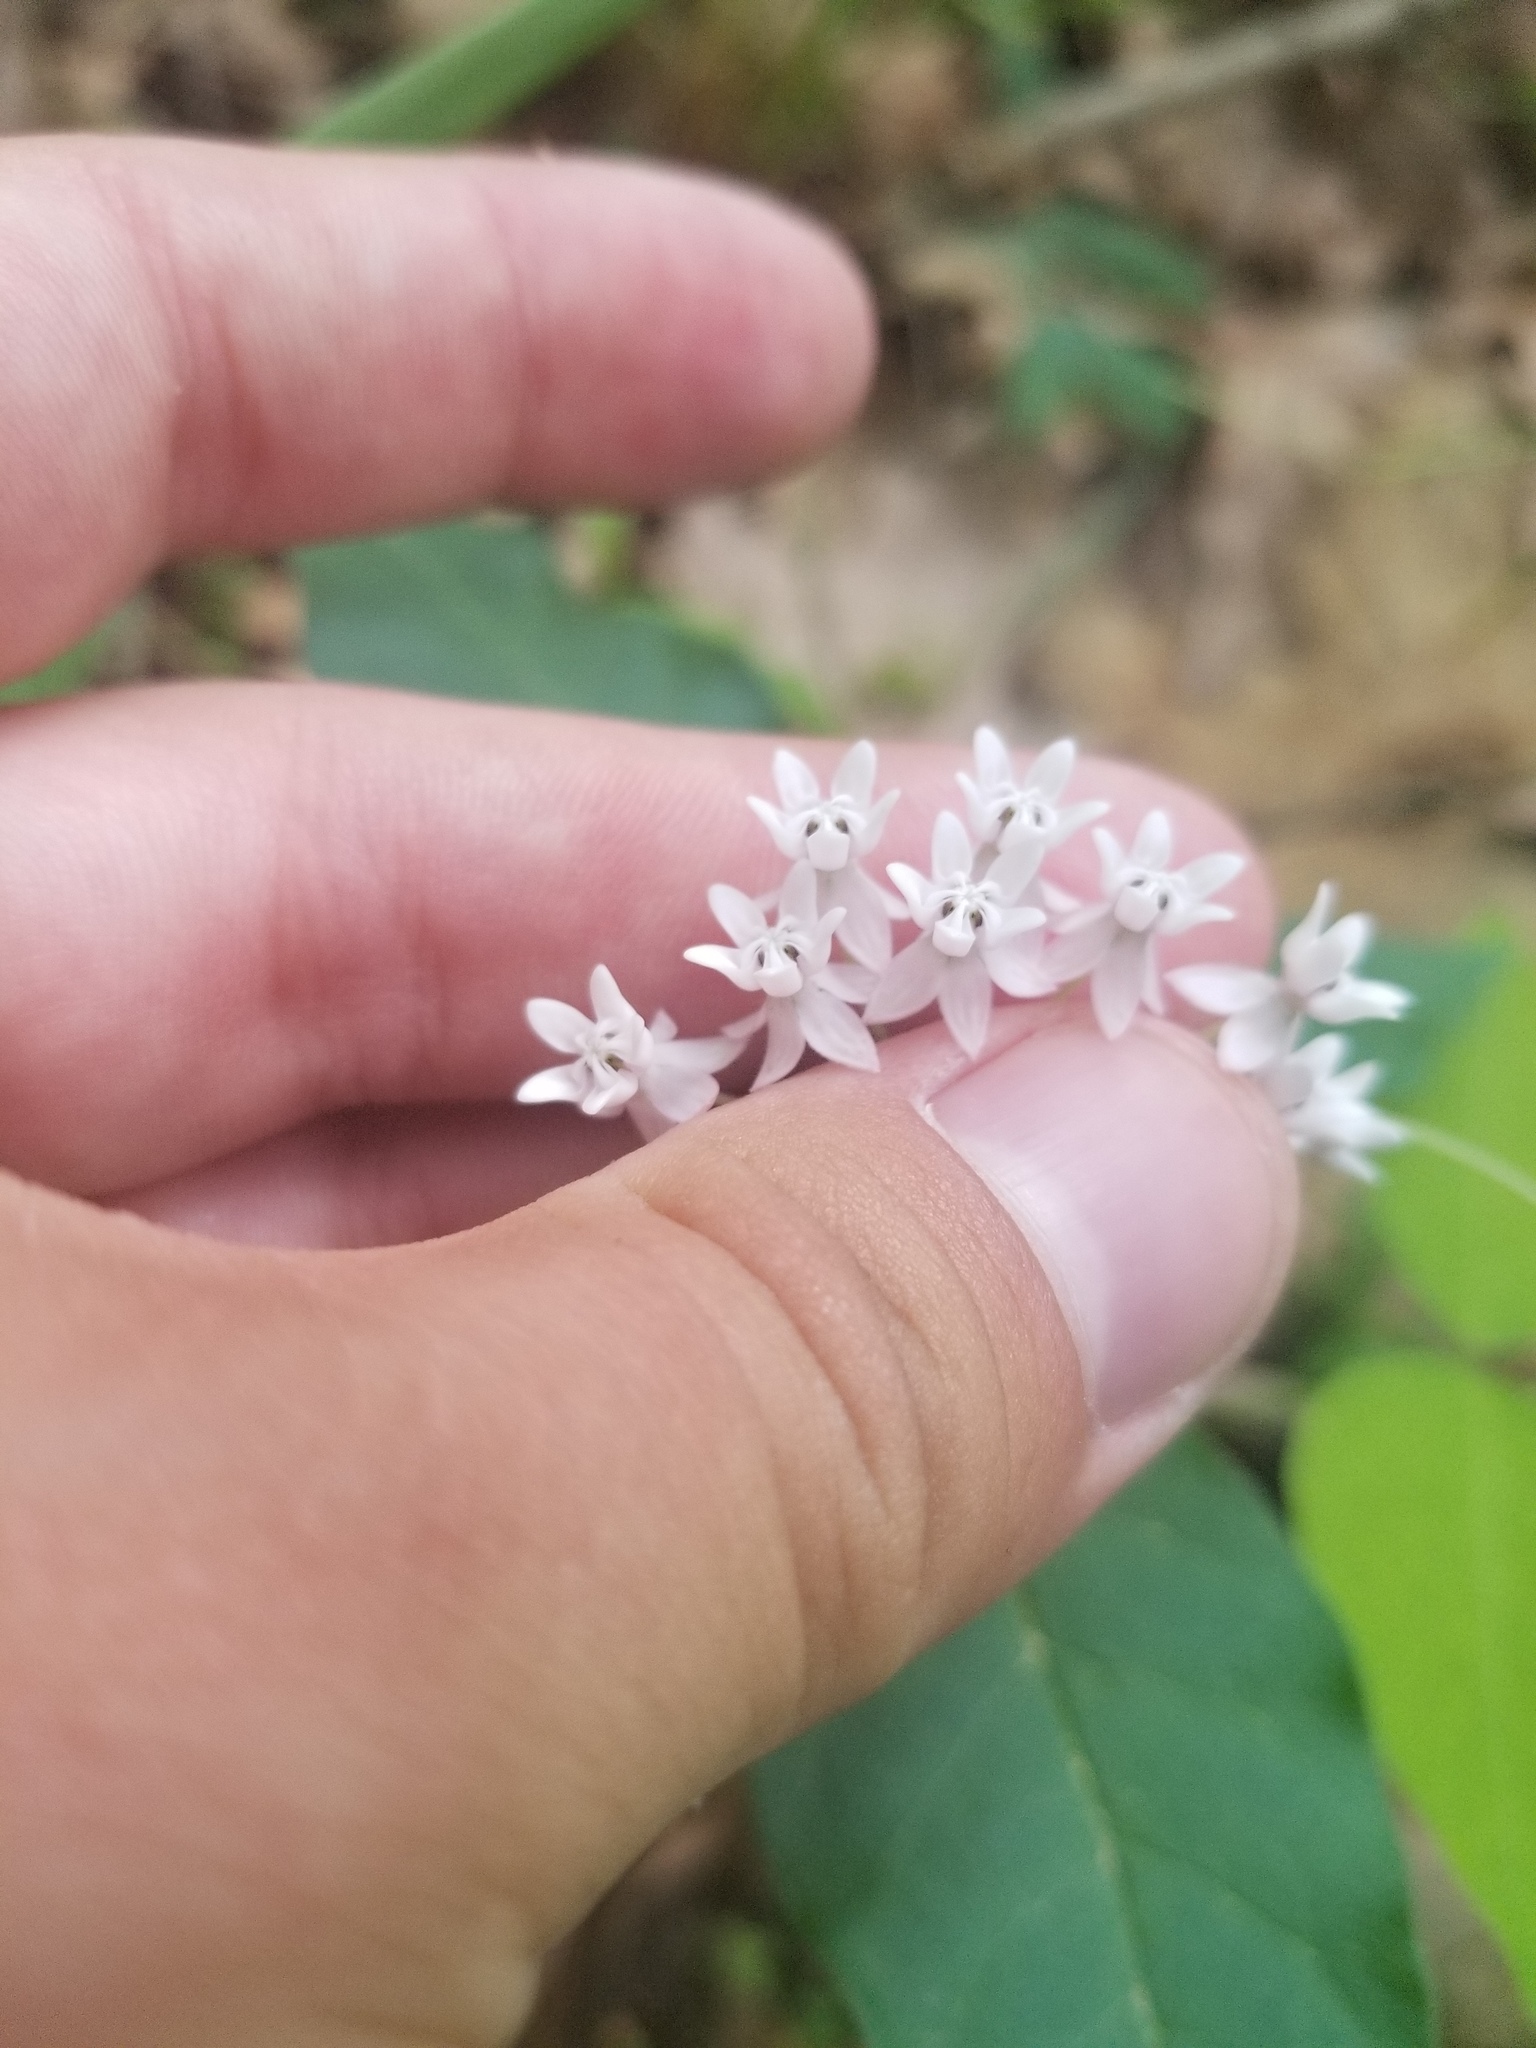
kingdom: Plantae
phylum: Tracheophyta
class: Magnoliopsida
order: Gentianales
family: Apocynaceae
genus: Asclepias
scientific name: Asclepias quadrifolia
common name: Whorled milkweed
